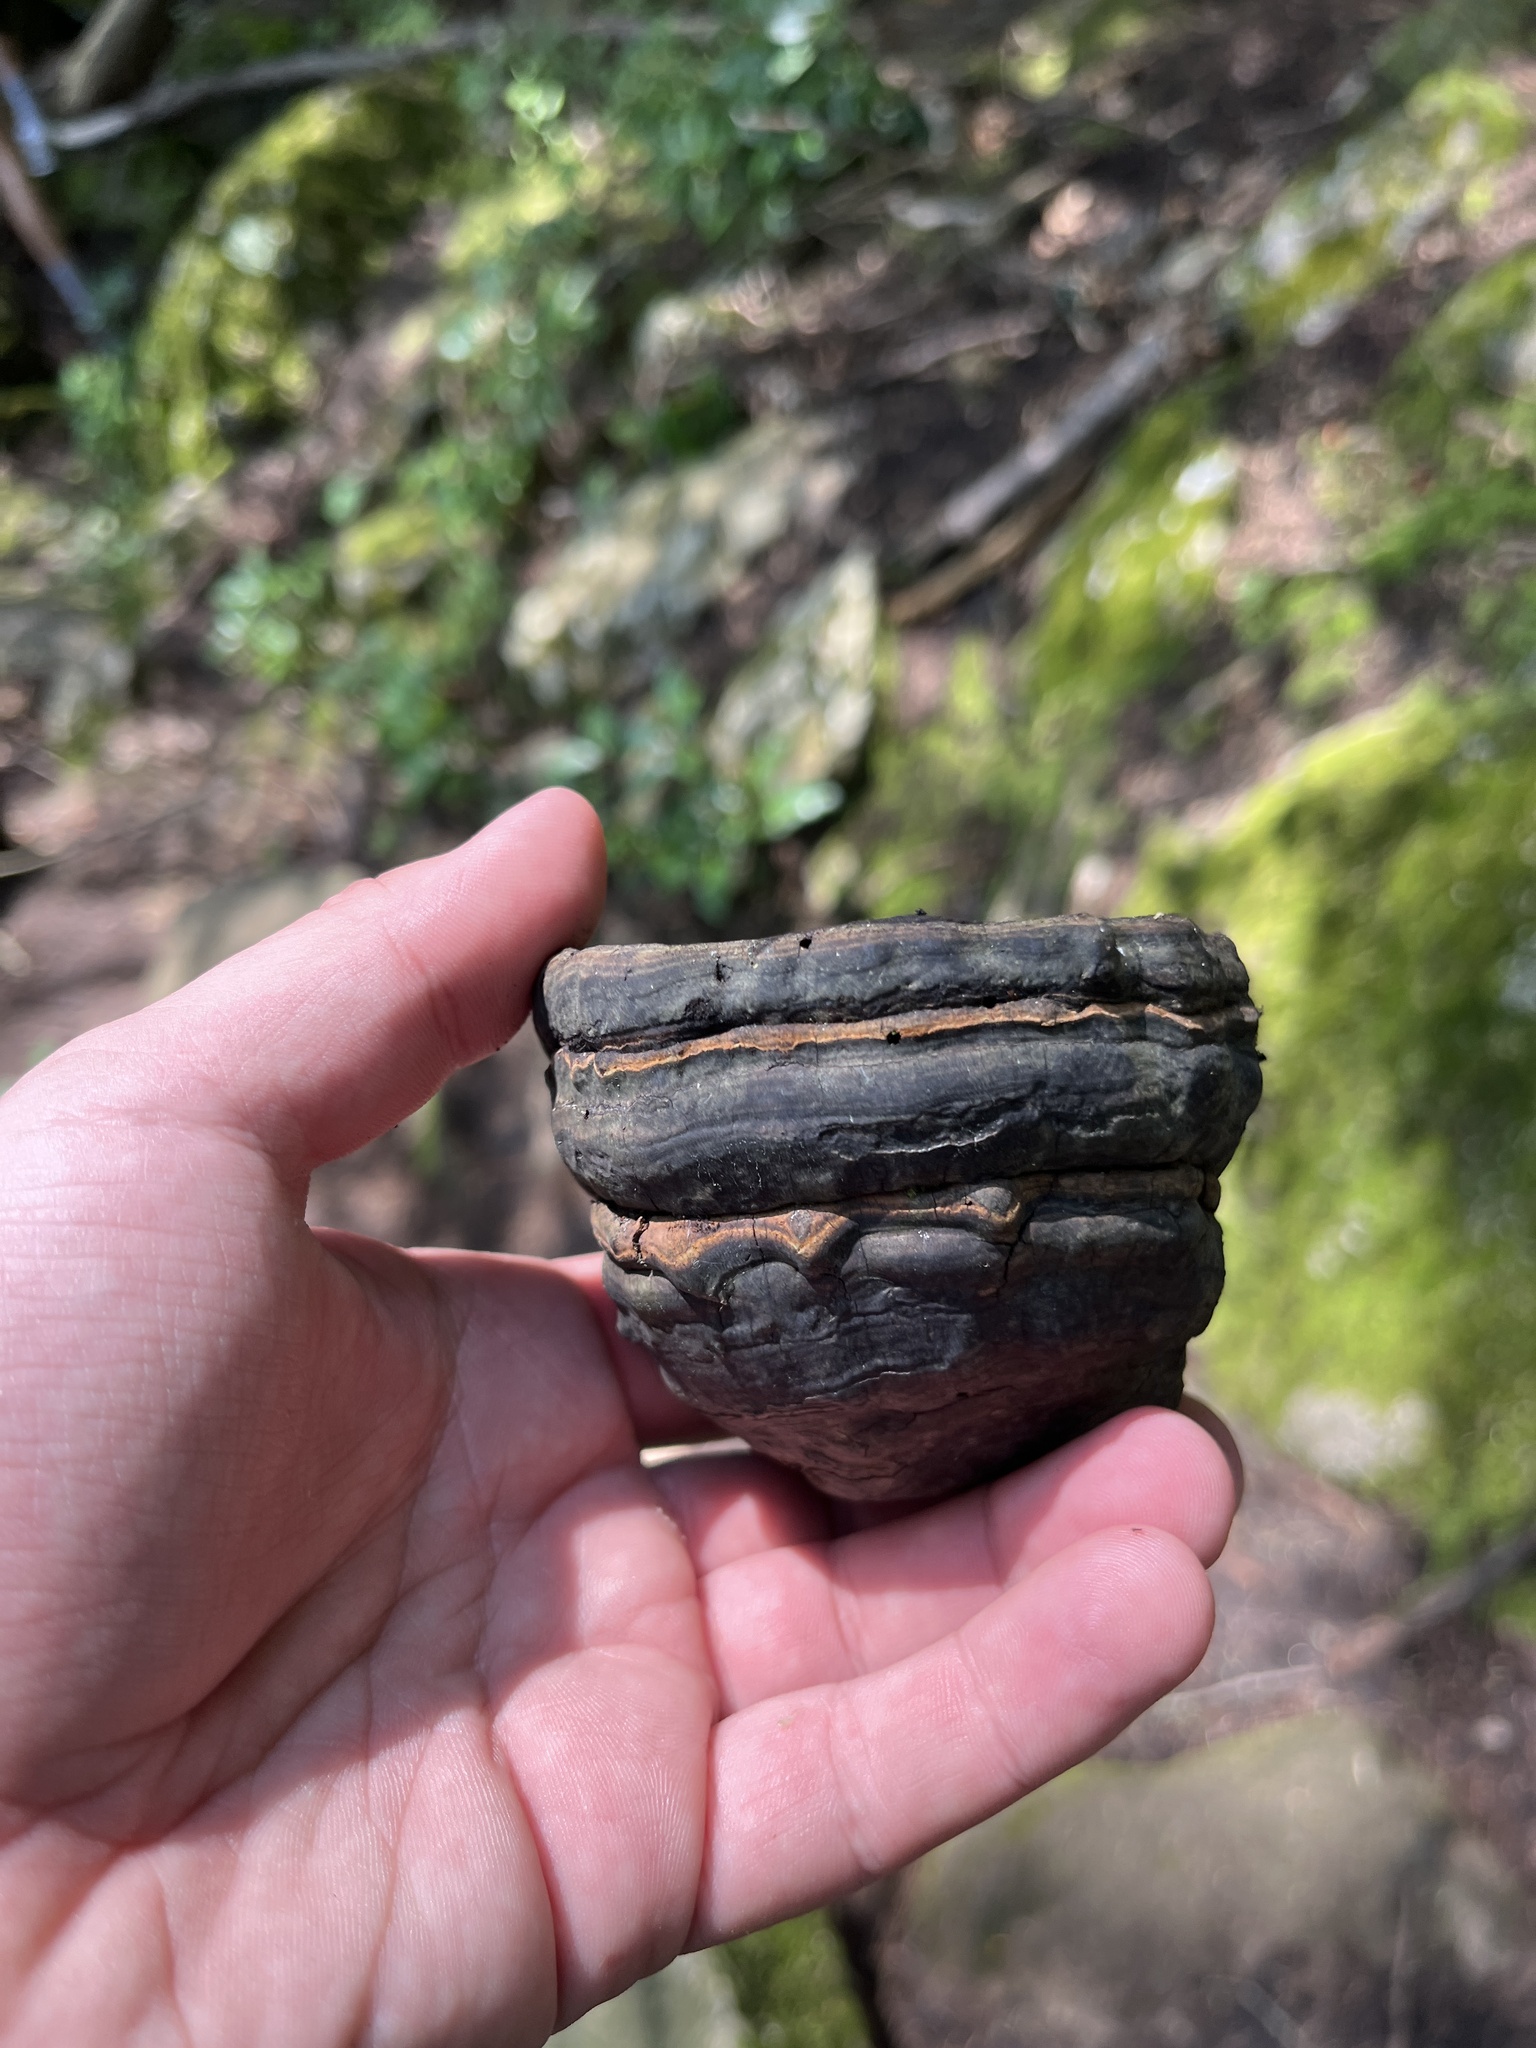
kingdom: Fungi
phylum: Basidiomycota
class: Agaricomycetes
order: Polyporales
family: Polyporaceae
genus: Fomes
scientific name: Fomes fomentarius
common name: Hoof fungus
